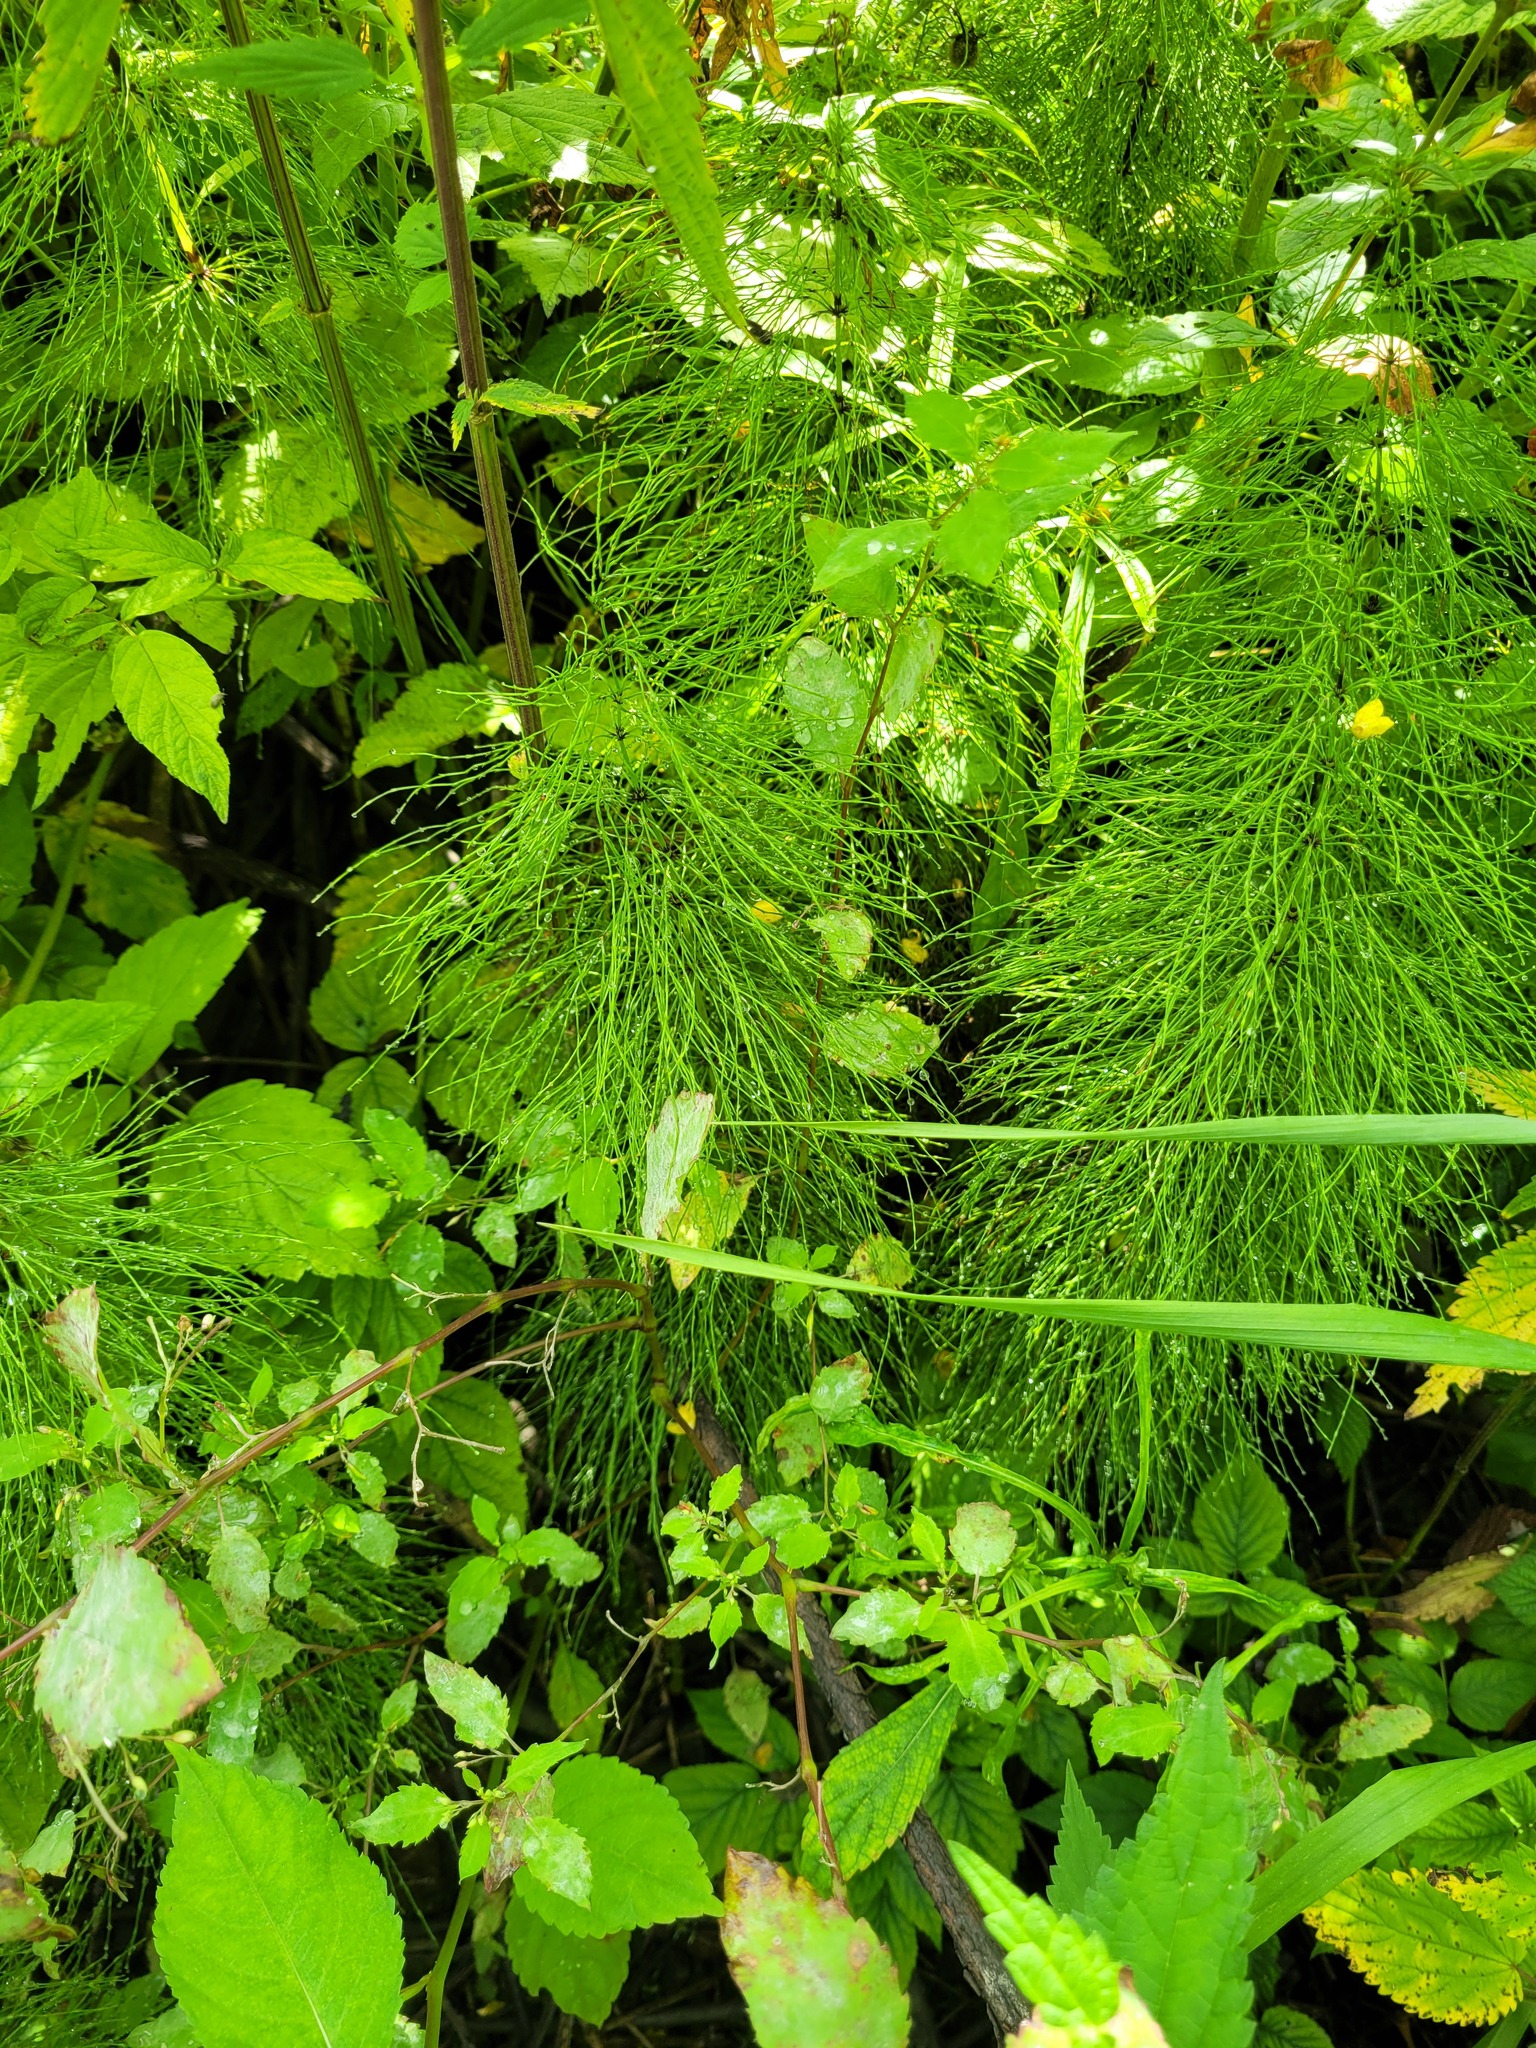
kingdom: Plantae
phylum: Tracheophyta
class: Polypodiopsida
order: Equisetales
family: Equisetaceae
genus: Equisetum
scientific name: Equisetum sylvaticum
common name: Wood horsetail
